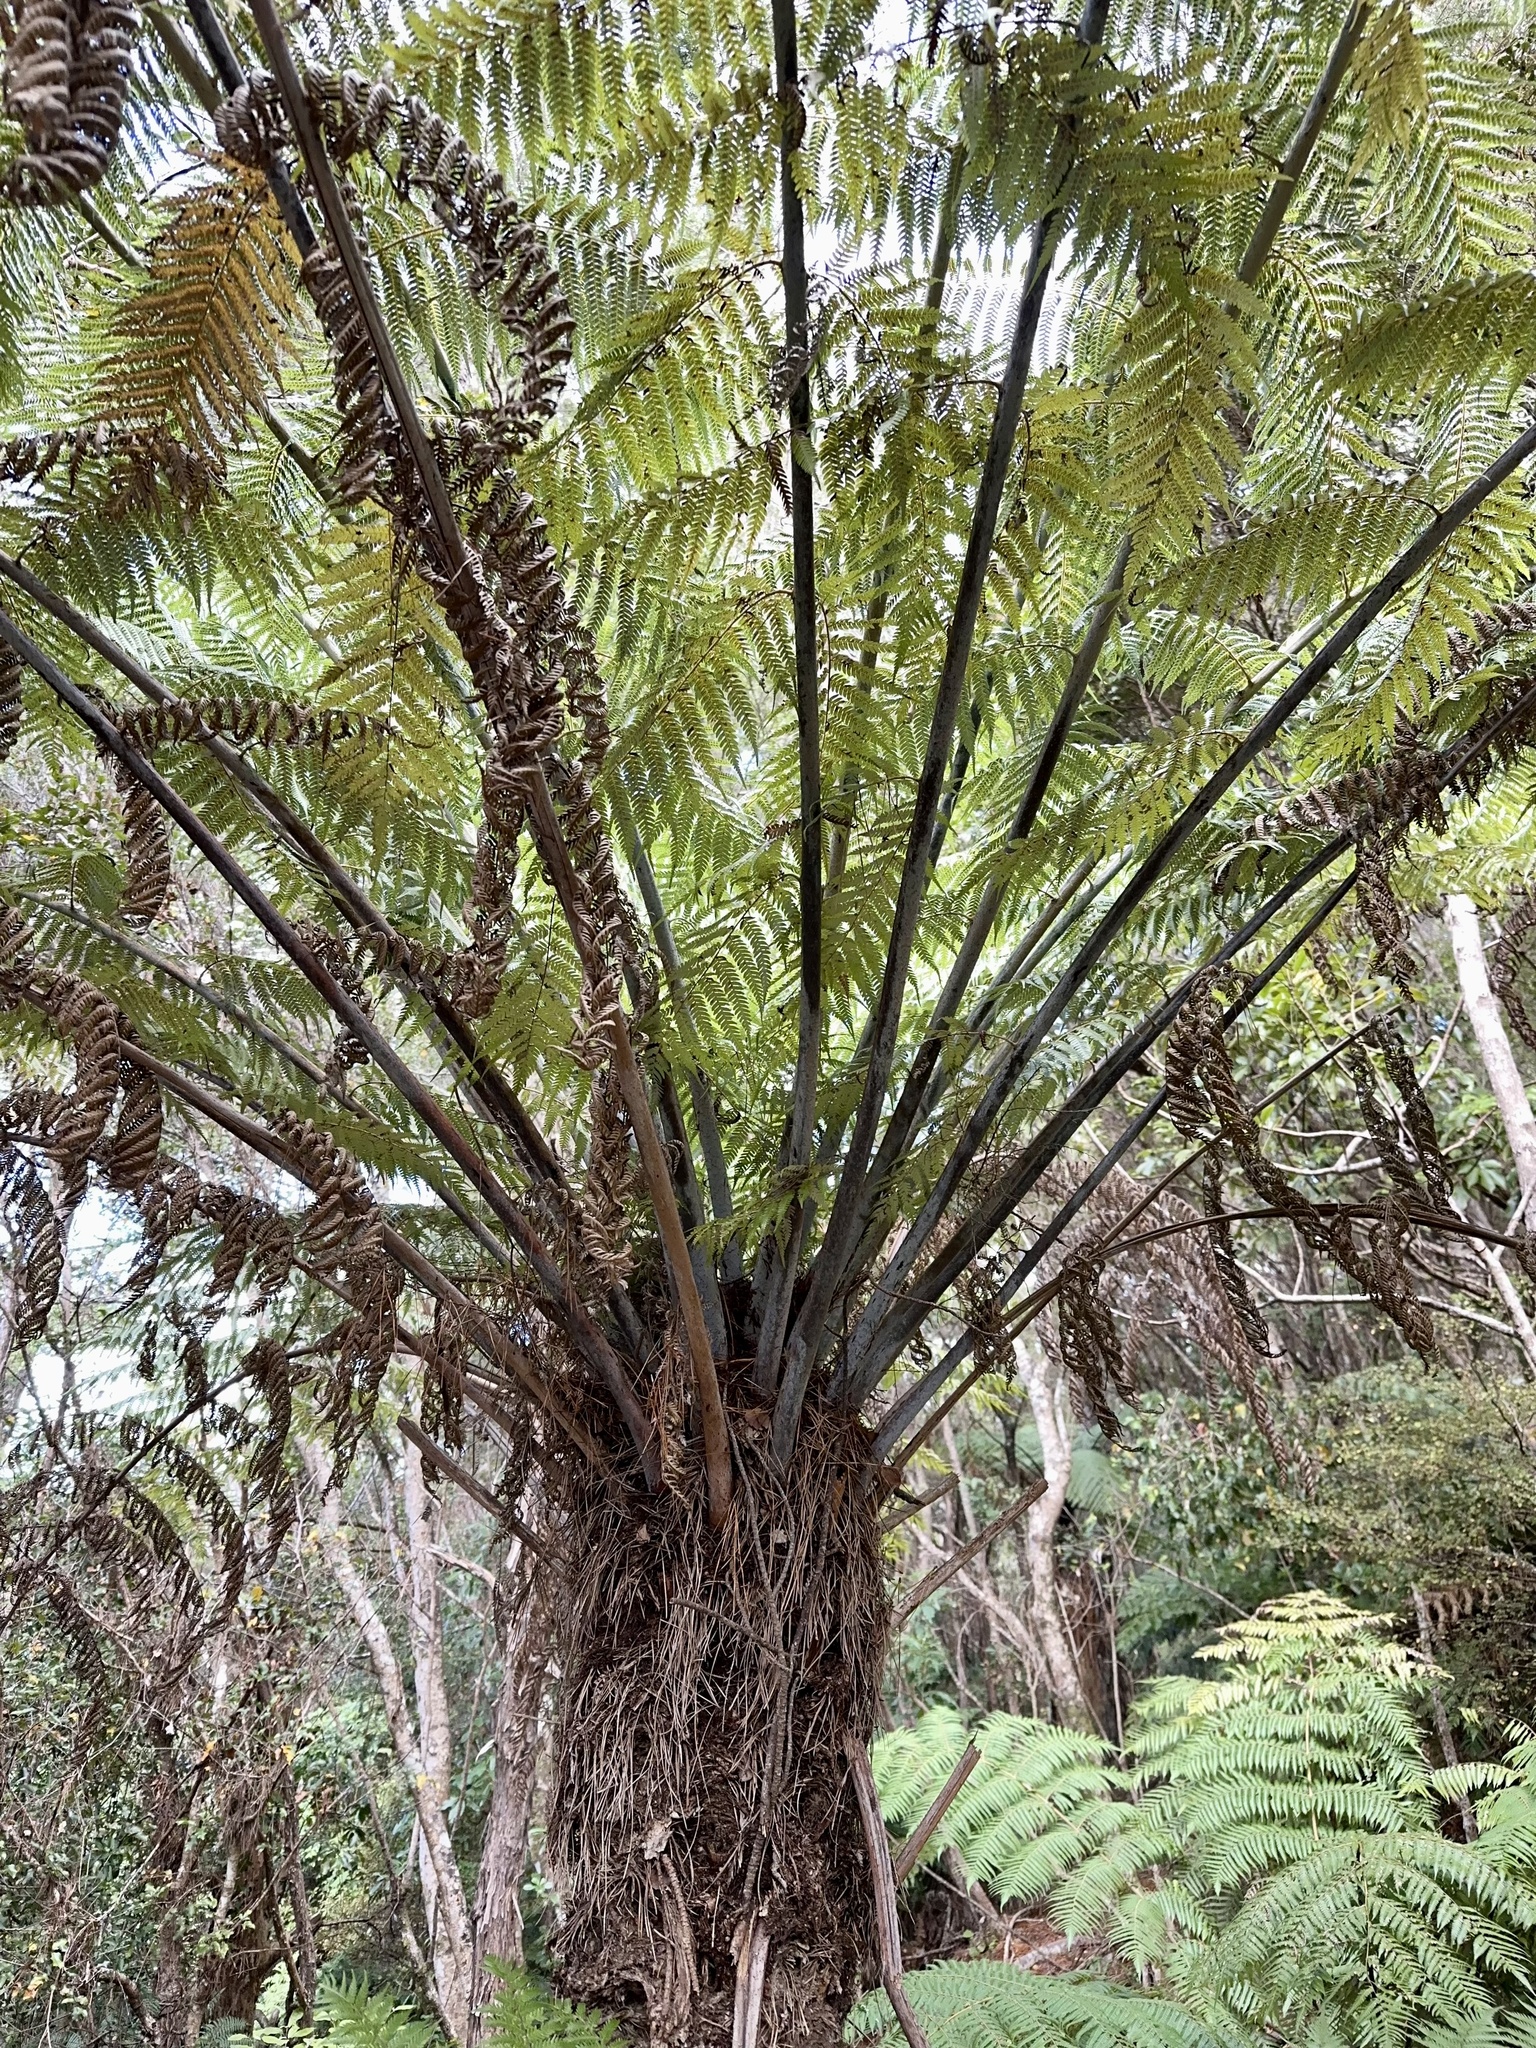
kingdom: Plantae
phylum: Tracheophyta
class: Polypodiopsida
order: Cyatheales
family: Cyatheaceae
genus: Alsophila
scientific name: Alsophila dealbata
